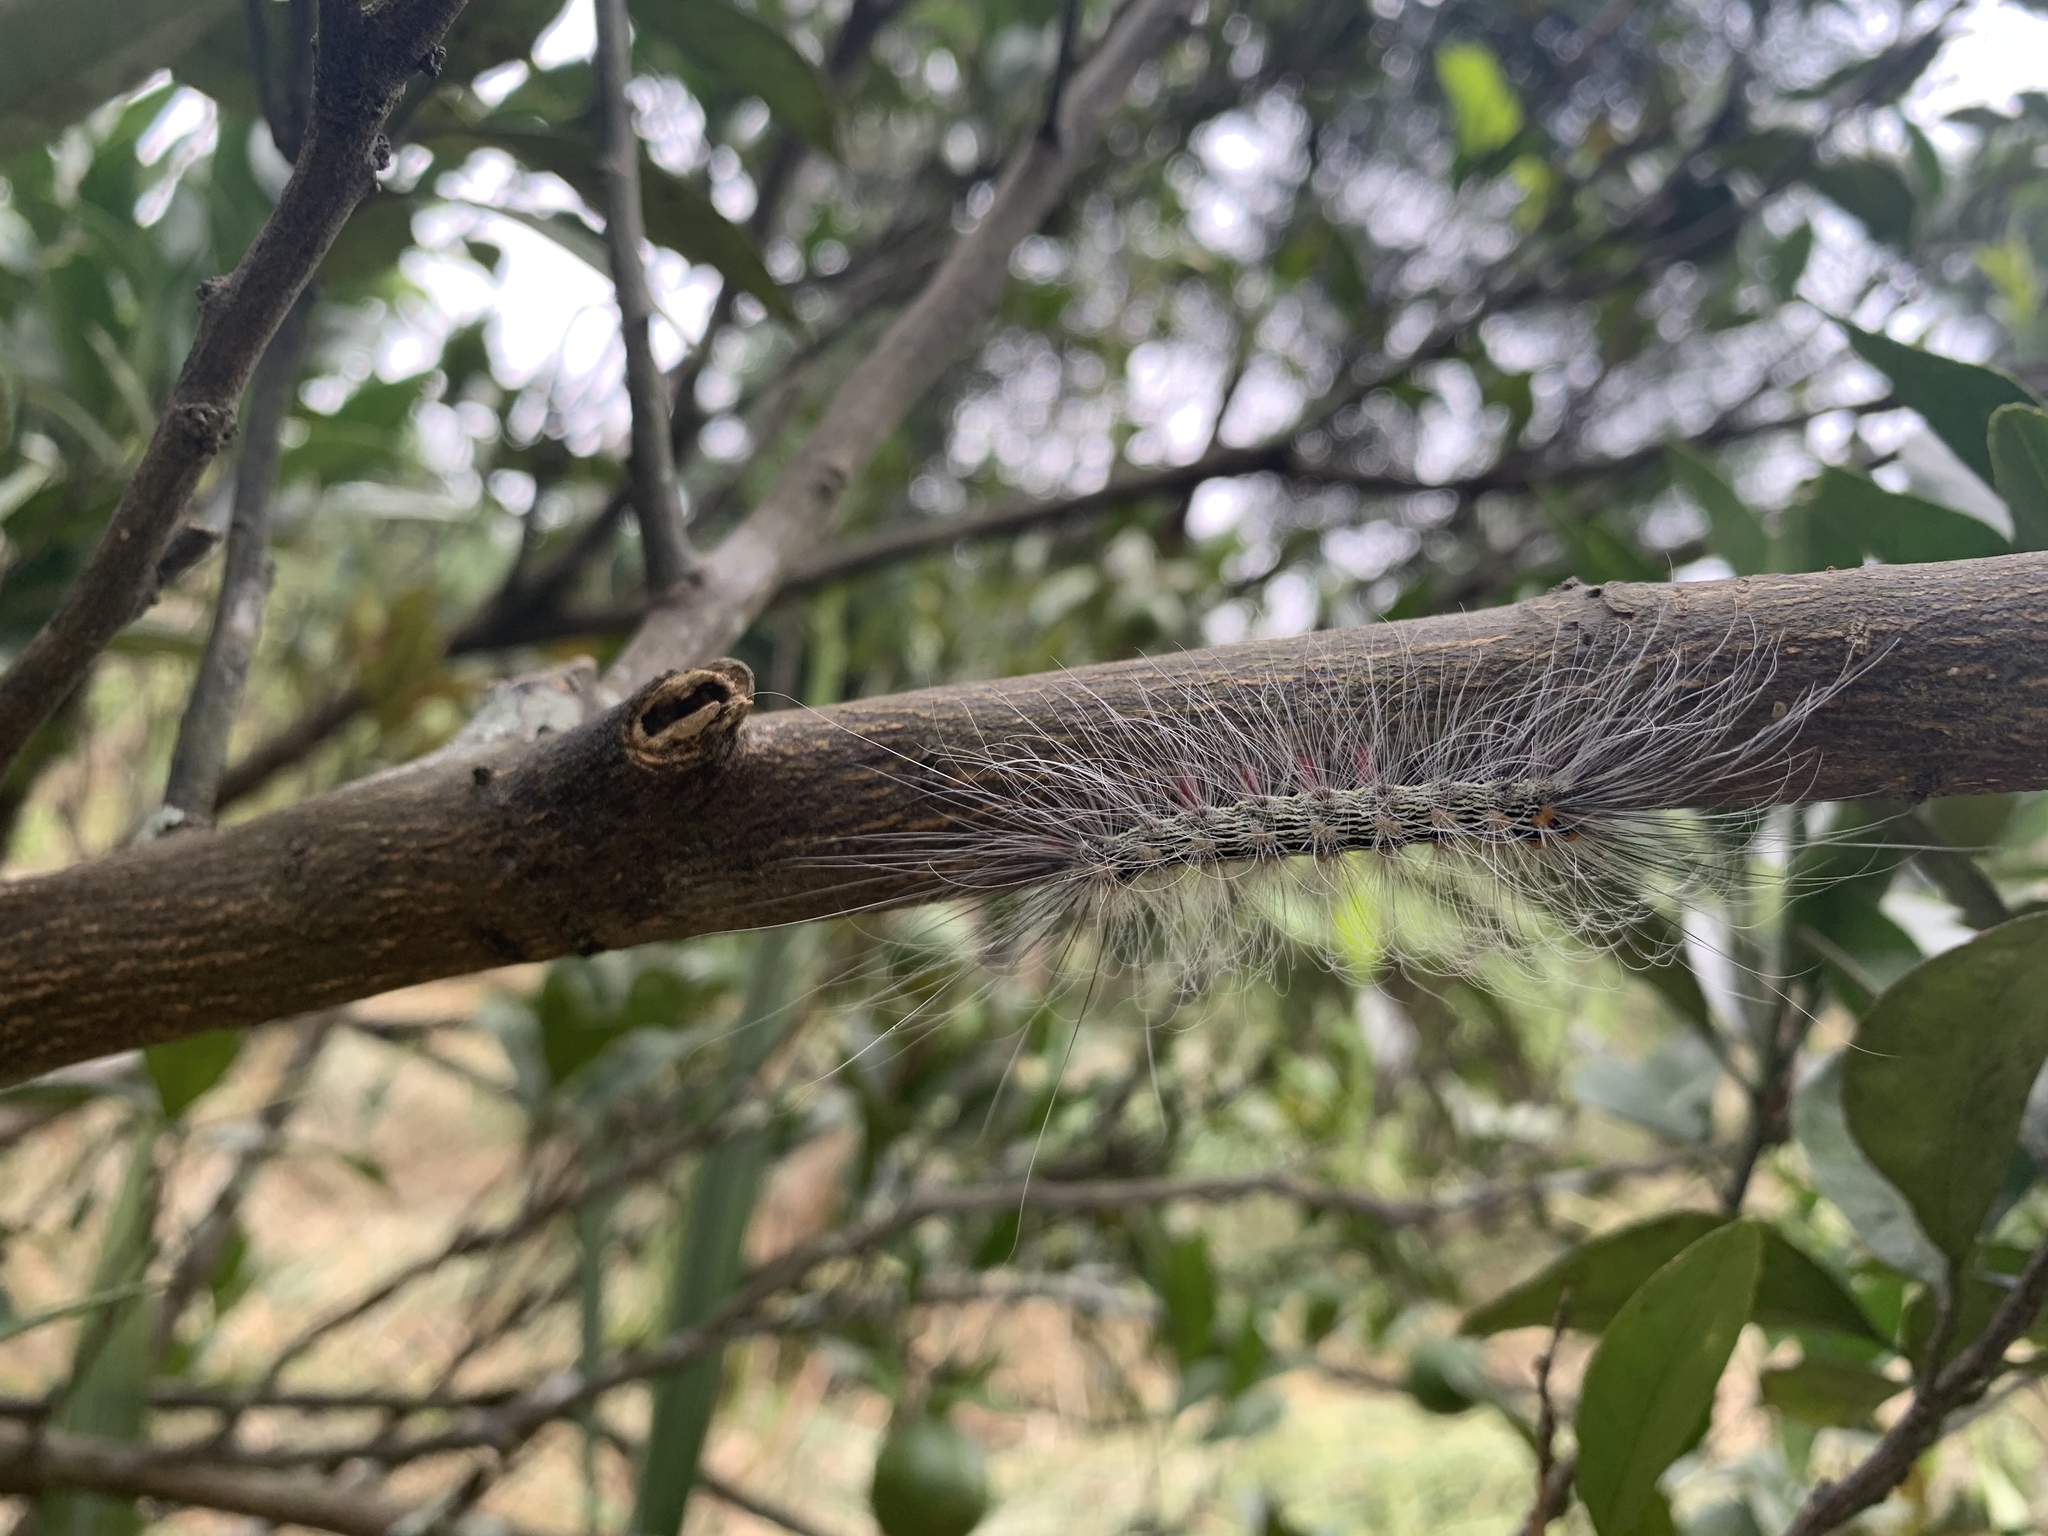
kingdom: Animalia
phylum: Arthropoda
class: Insecta
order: Lepidoptera
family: Erebidae
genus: Chrysaeglia
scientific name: Chrysaeglia magnifica
